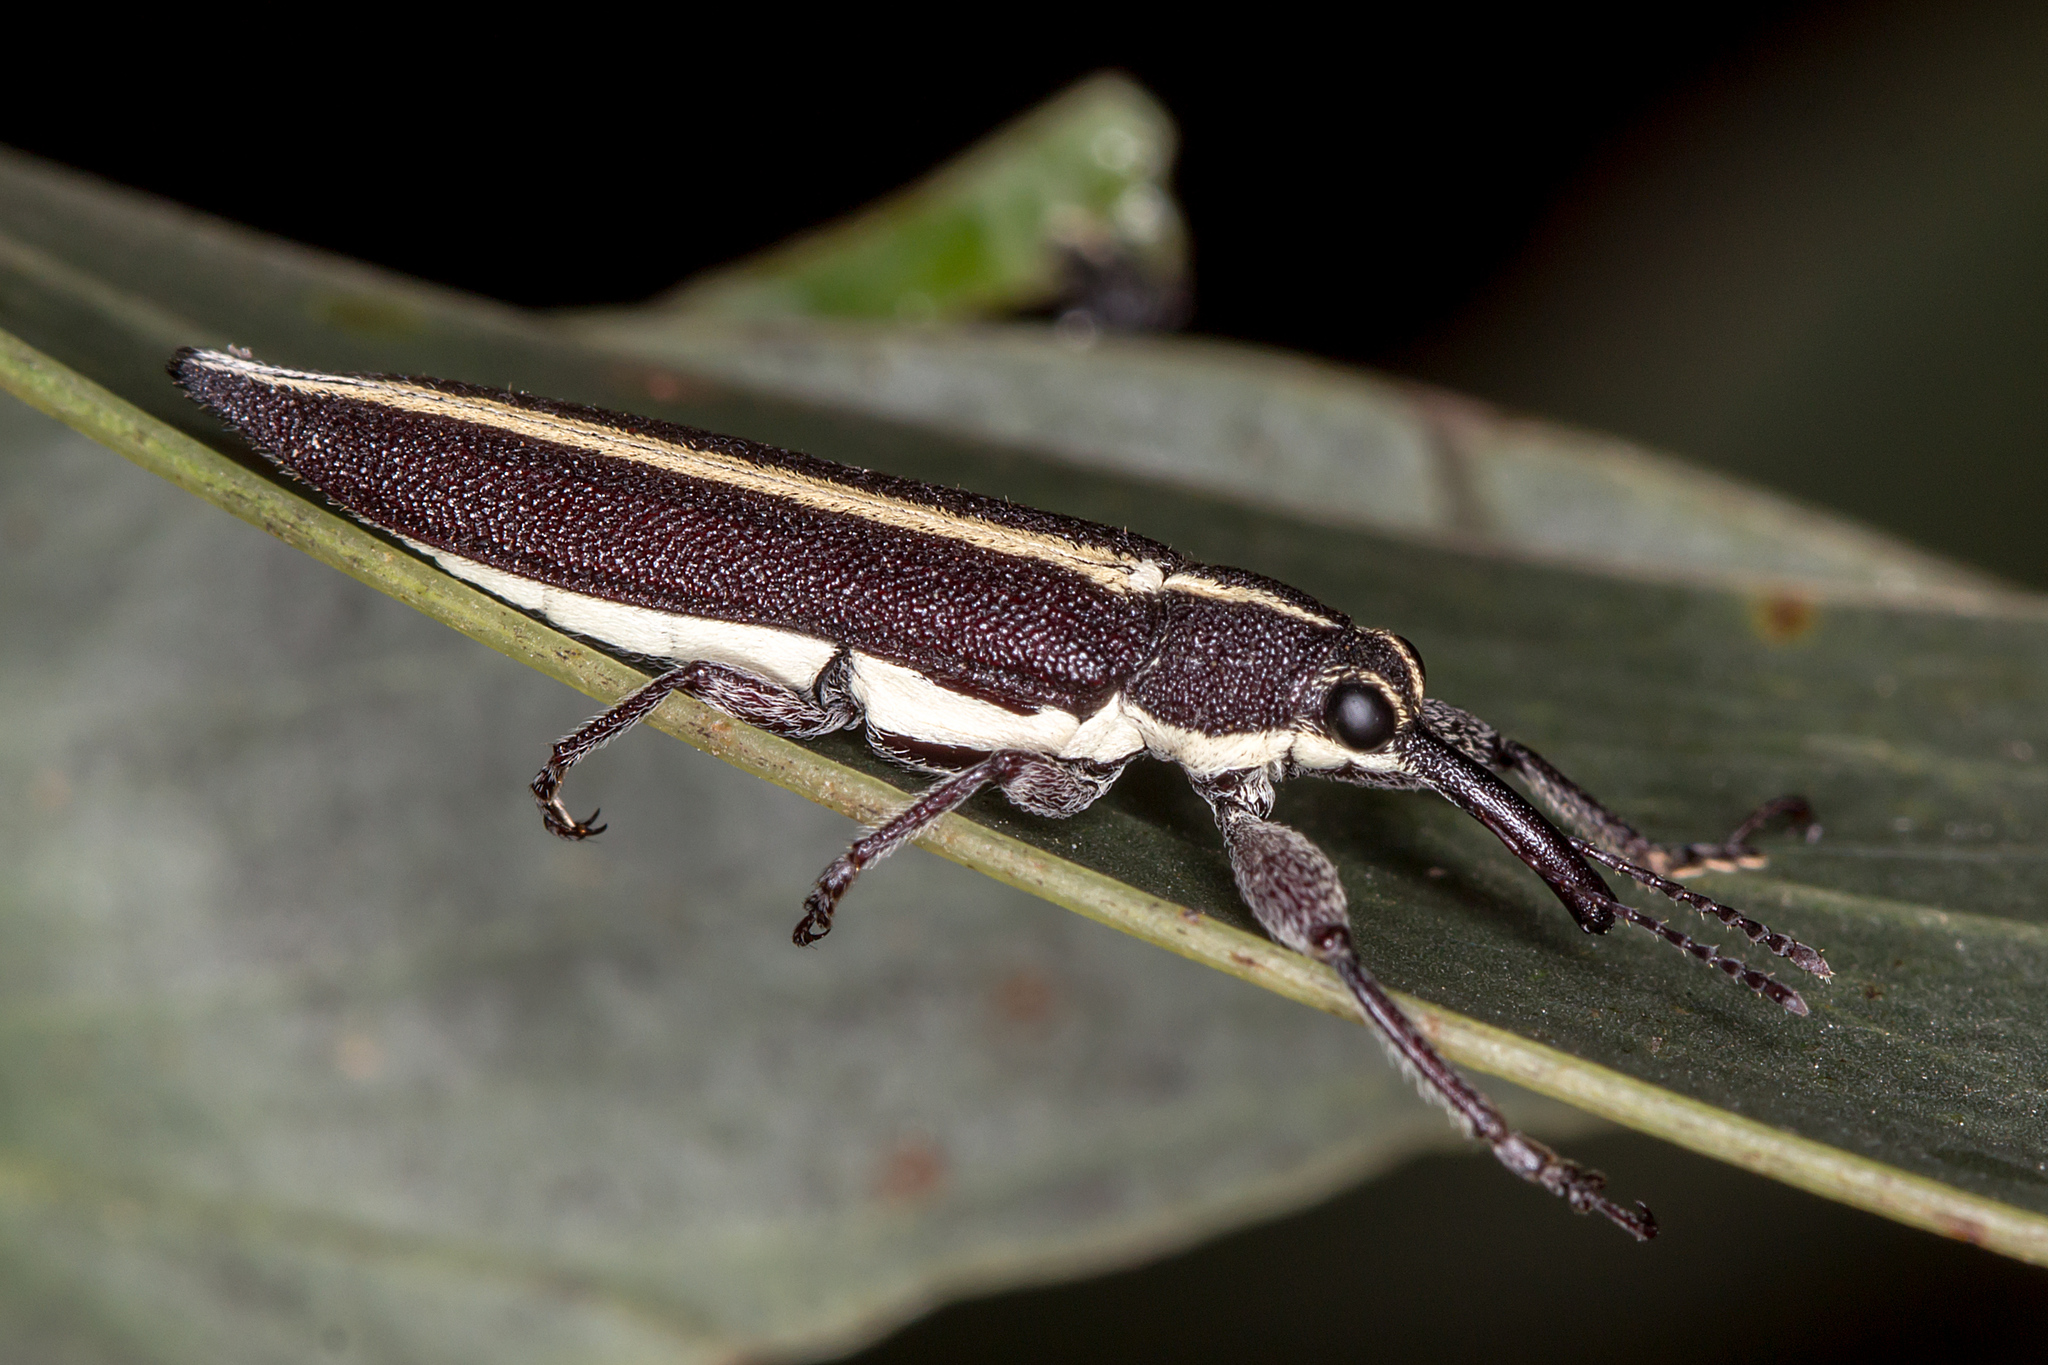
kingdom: Animalia
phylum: Arthropoda
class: Insecta
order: Coleoptera
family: Belidae
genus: Rhinotia
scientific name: Rhinotia suturalis
